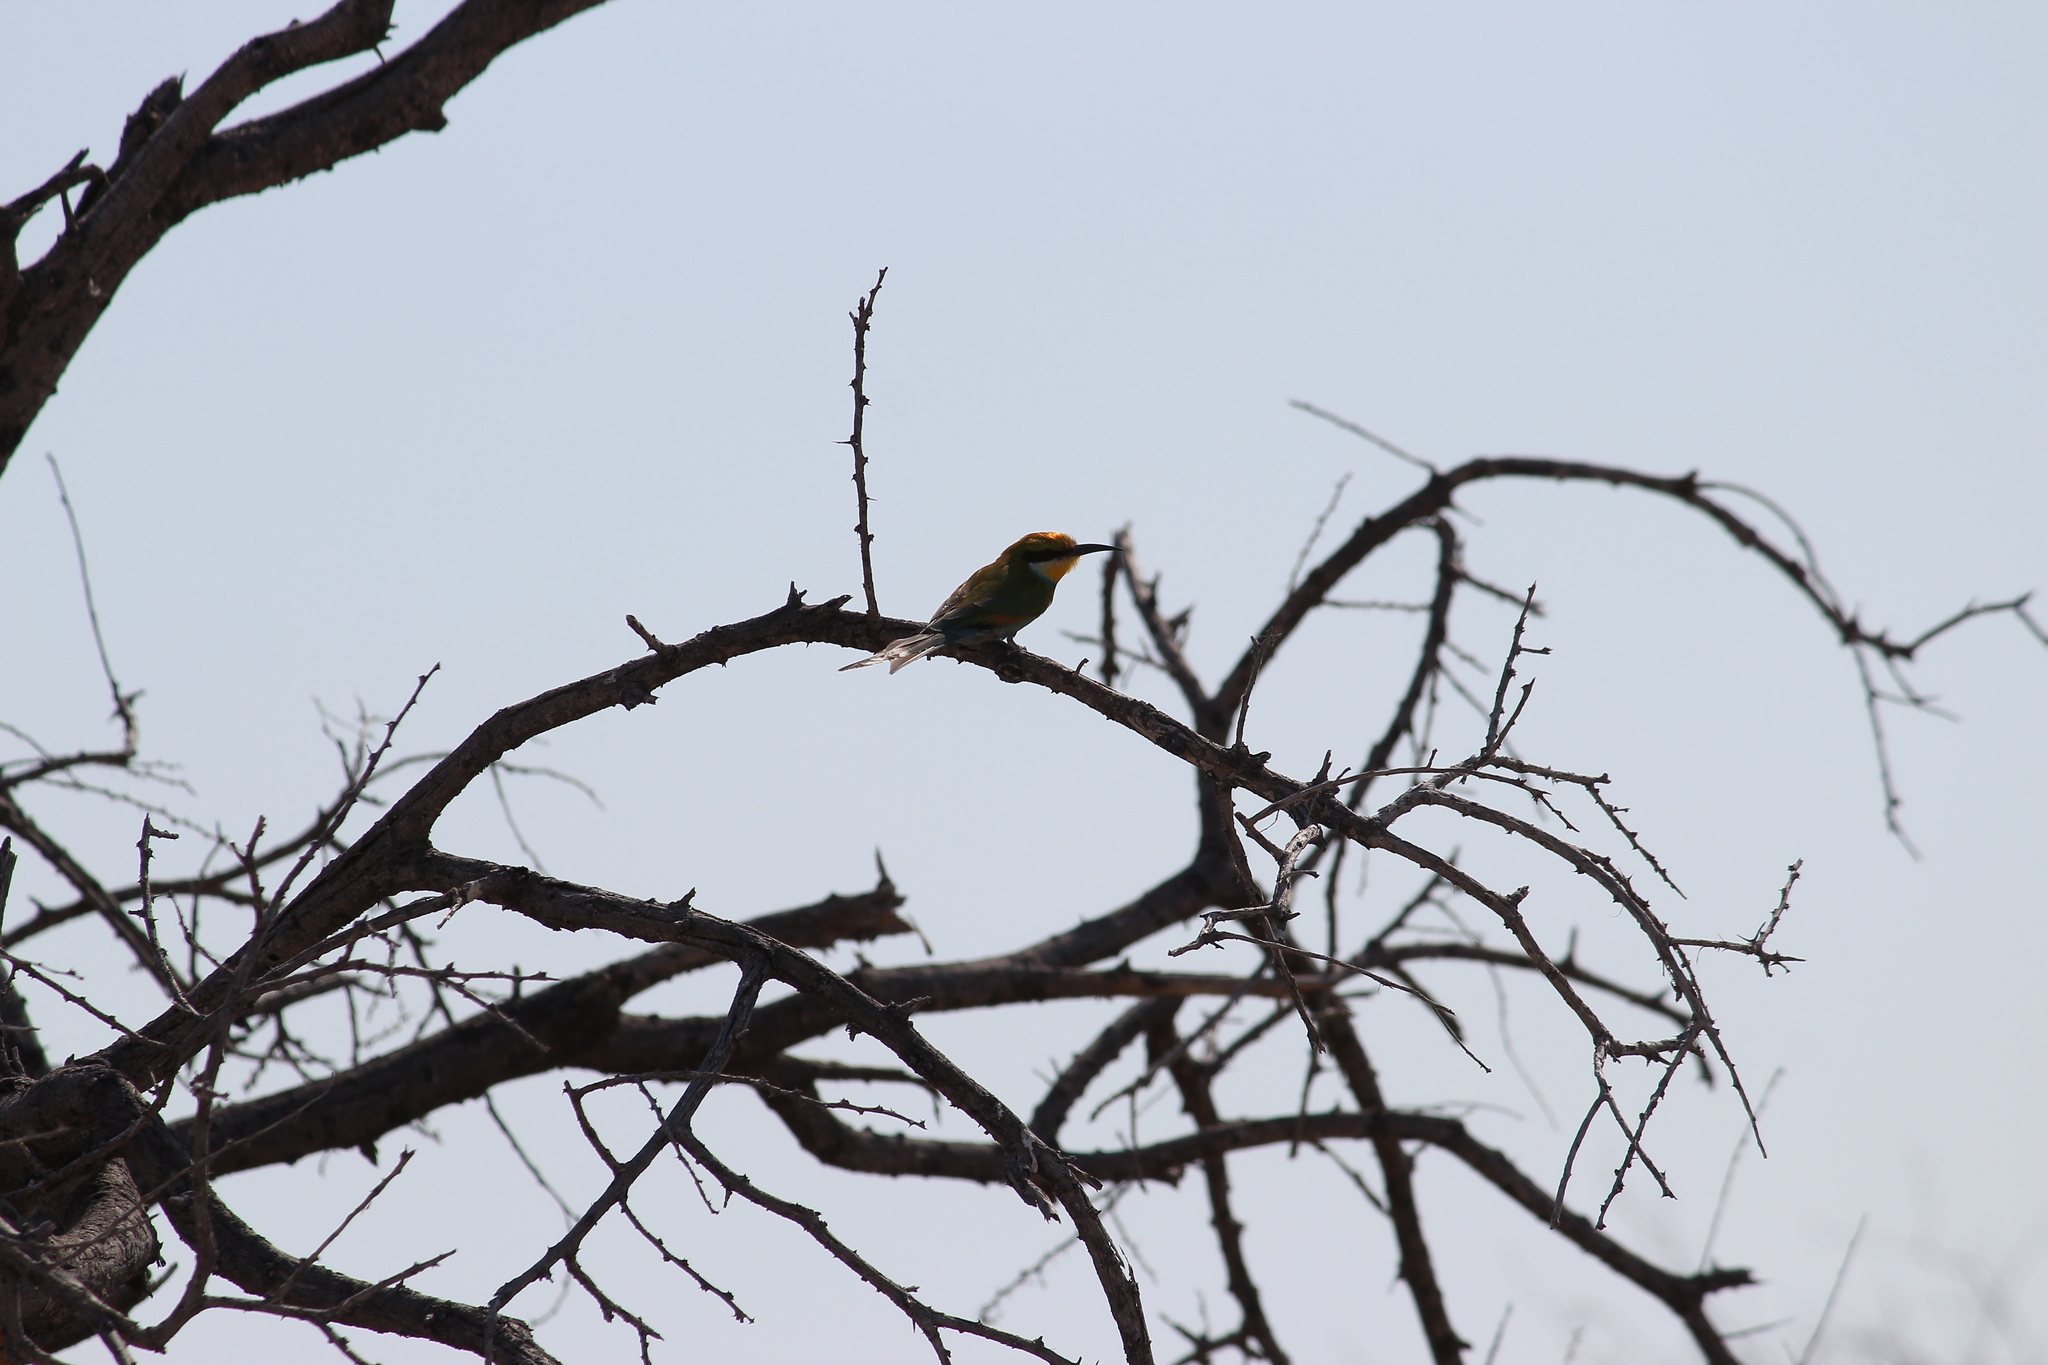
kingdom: Animalia
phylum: Chordata
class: Aves
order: Coraciiformes
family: Meropidae
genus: Merops
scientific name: Merops hirundineus
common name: Swallow-tailed bee-eater
